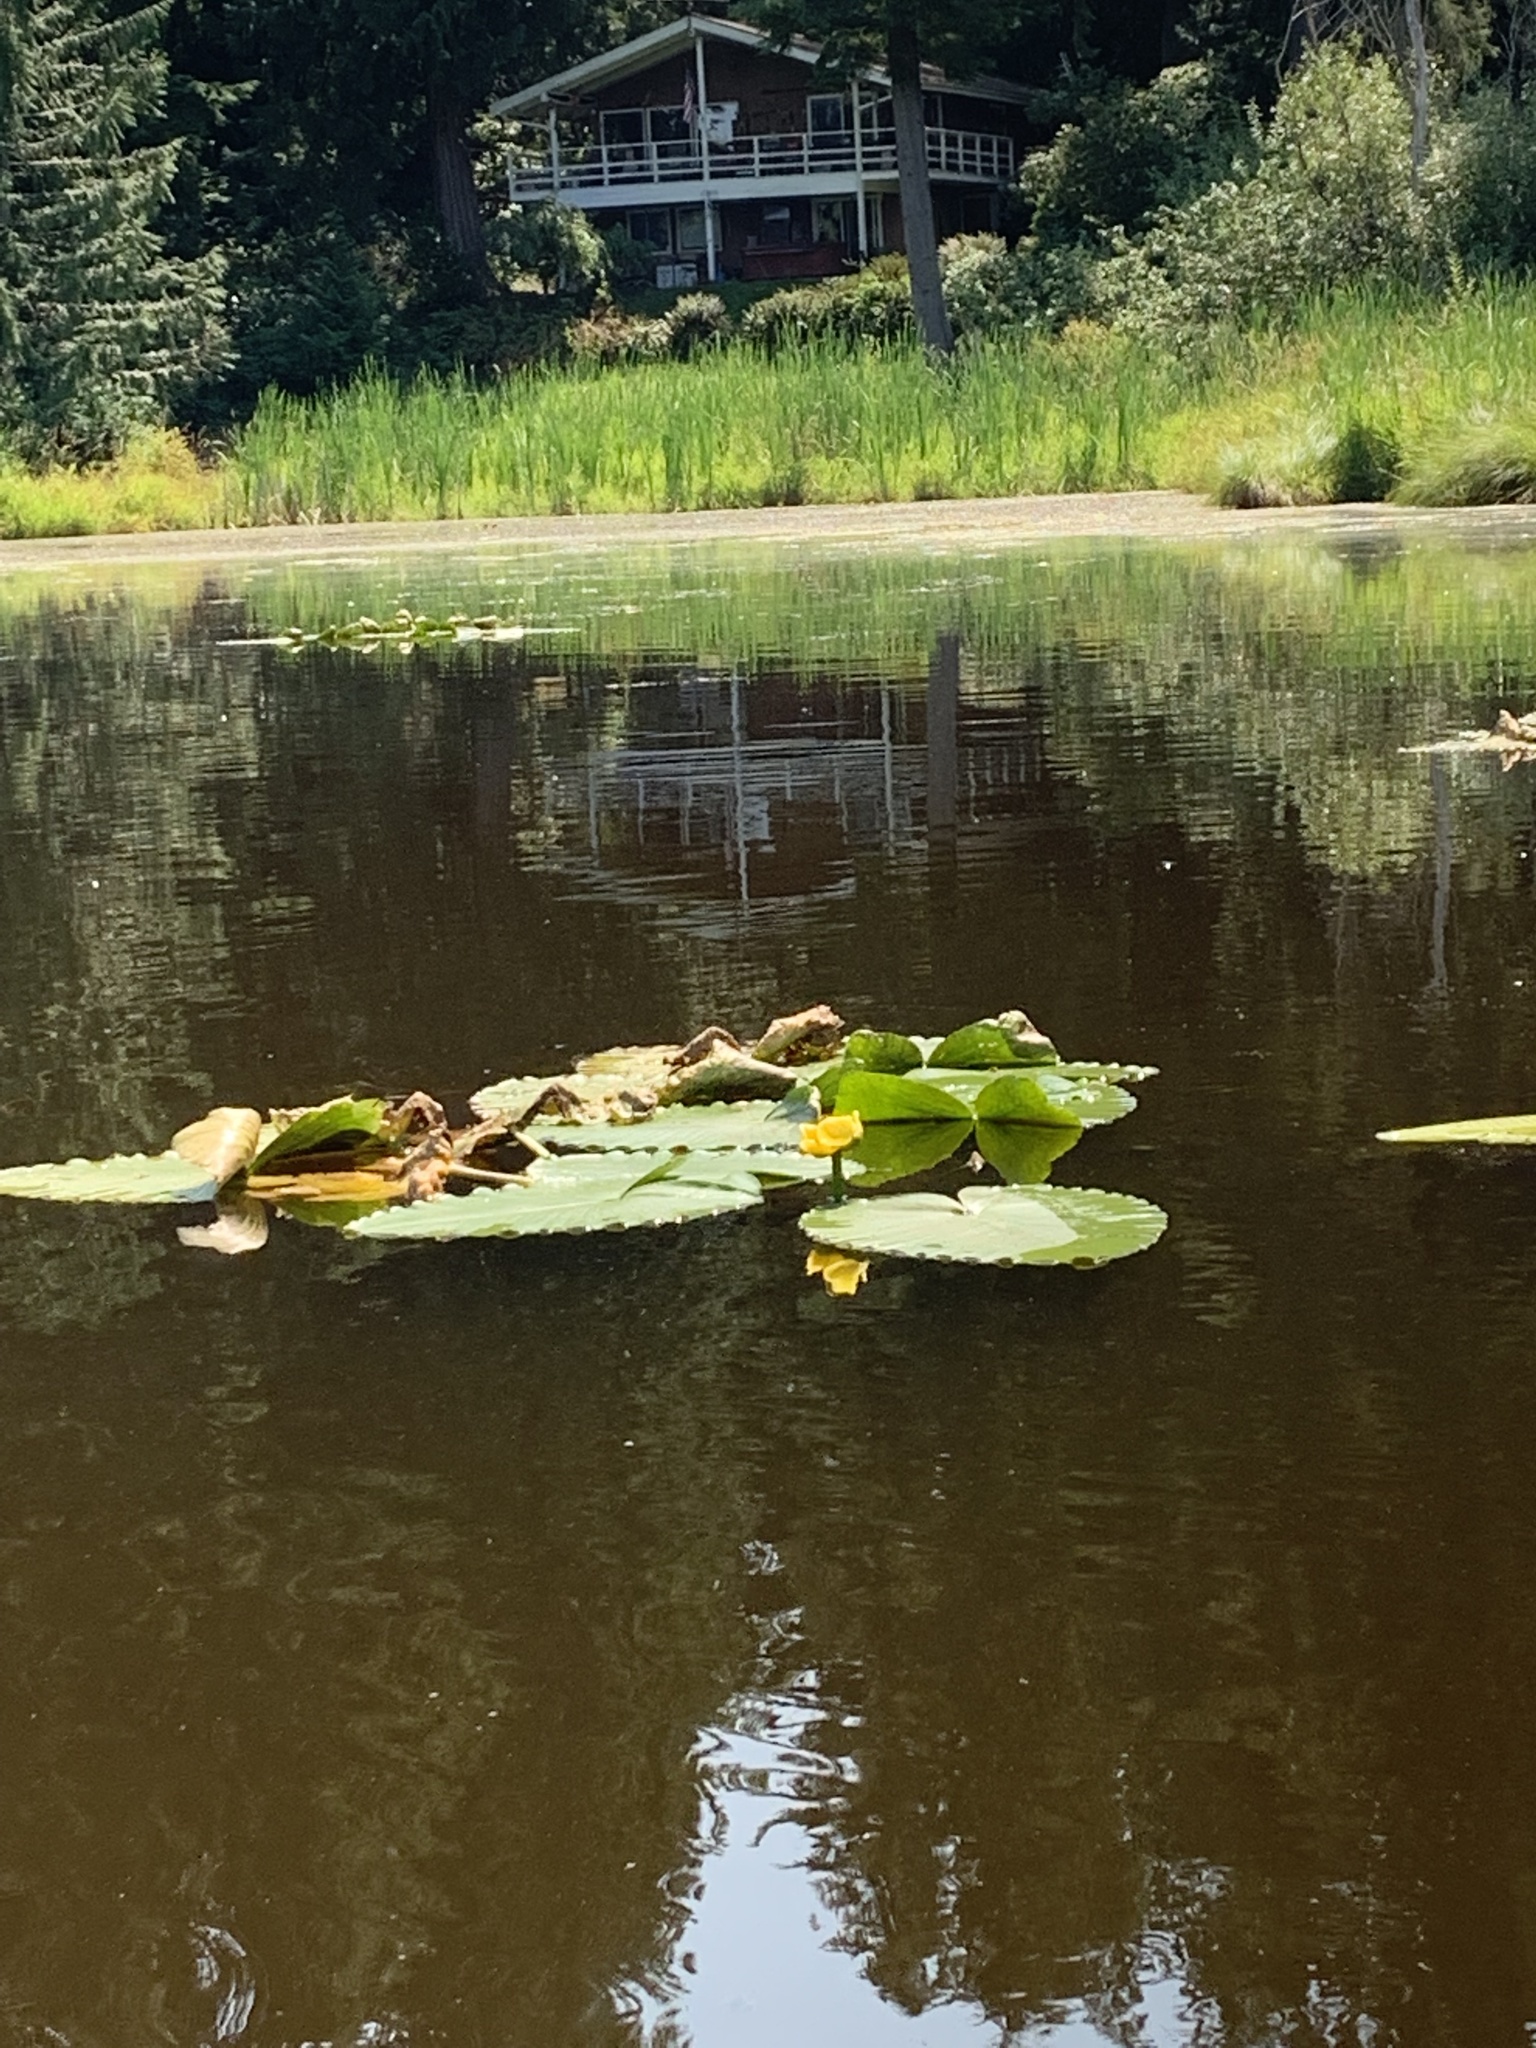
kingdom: Plantae
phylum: Tracheophyta
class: Magnoliopsida
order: Nymphaeales
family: Nymphaeaceae
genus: Nuphar
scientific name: Nuphar polysepala
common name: Rocky mountain cow-lily
